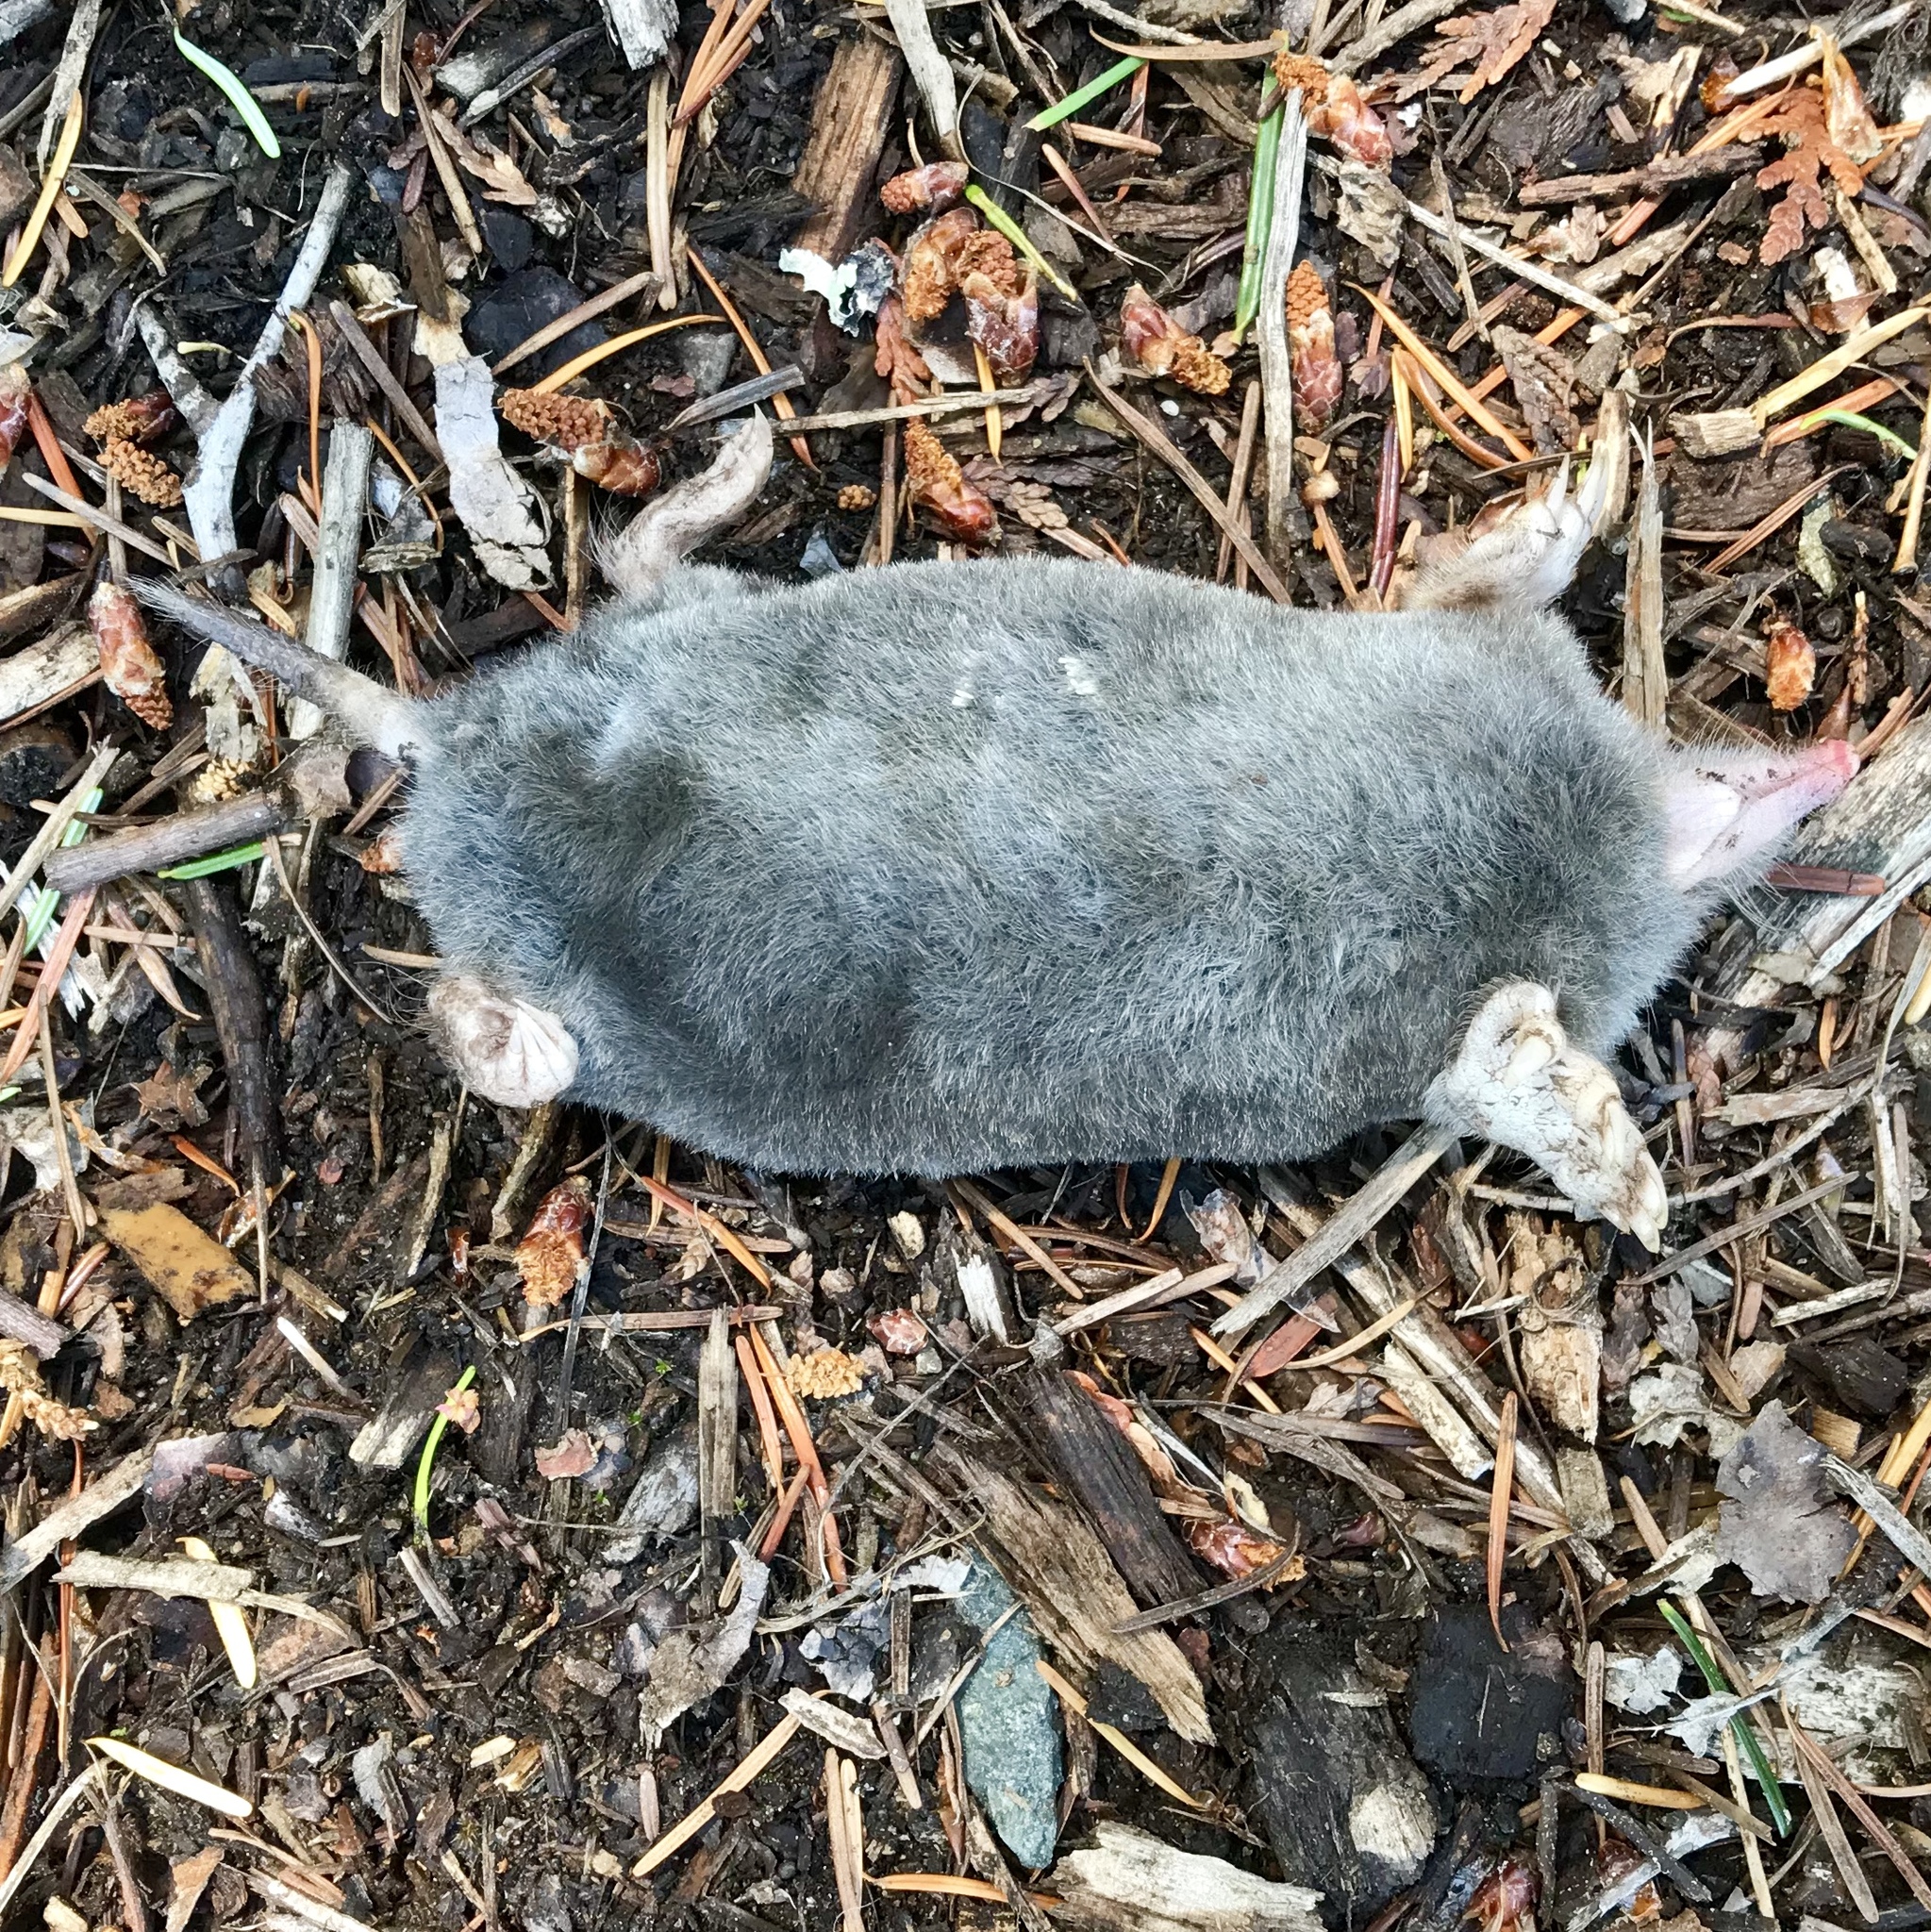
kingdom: Animalia
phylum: Chordata
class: Mammalia
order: Soricomorpha
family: Talpidae
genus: Scapanus
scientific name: Scapanus orarius
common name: Coast mole
